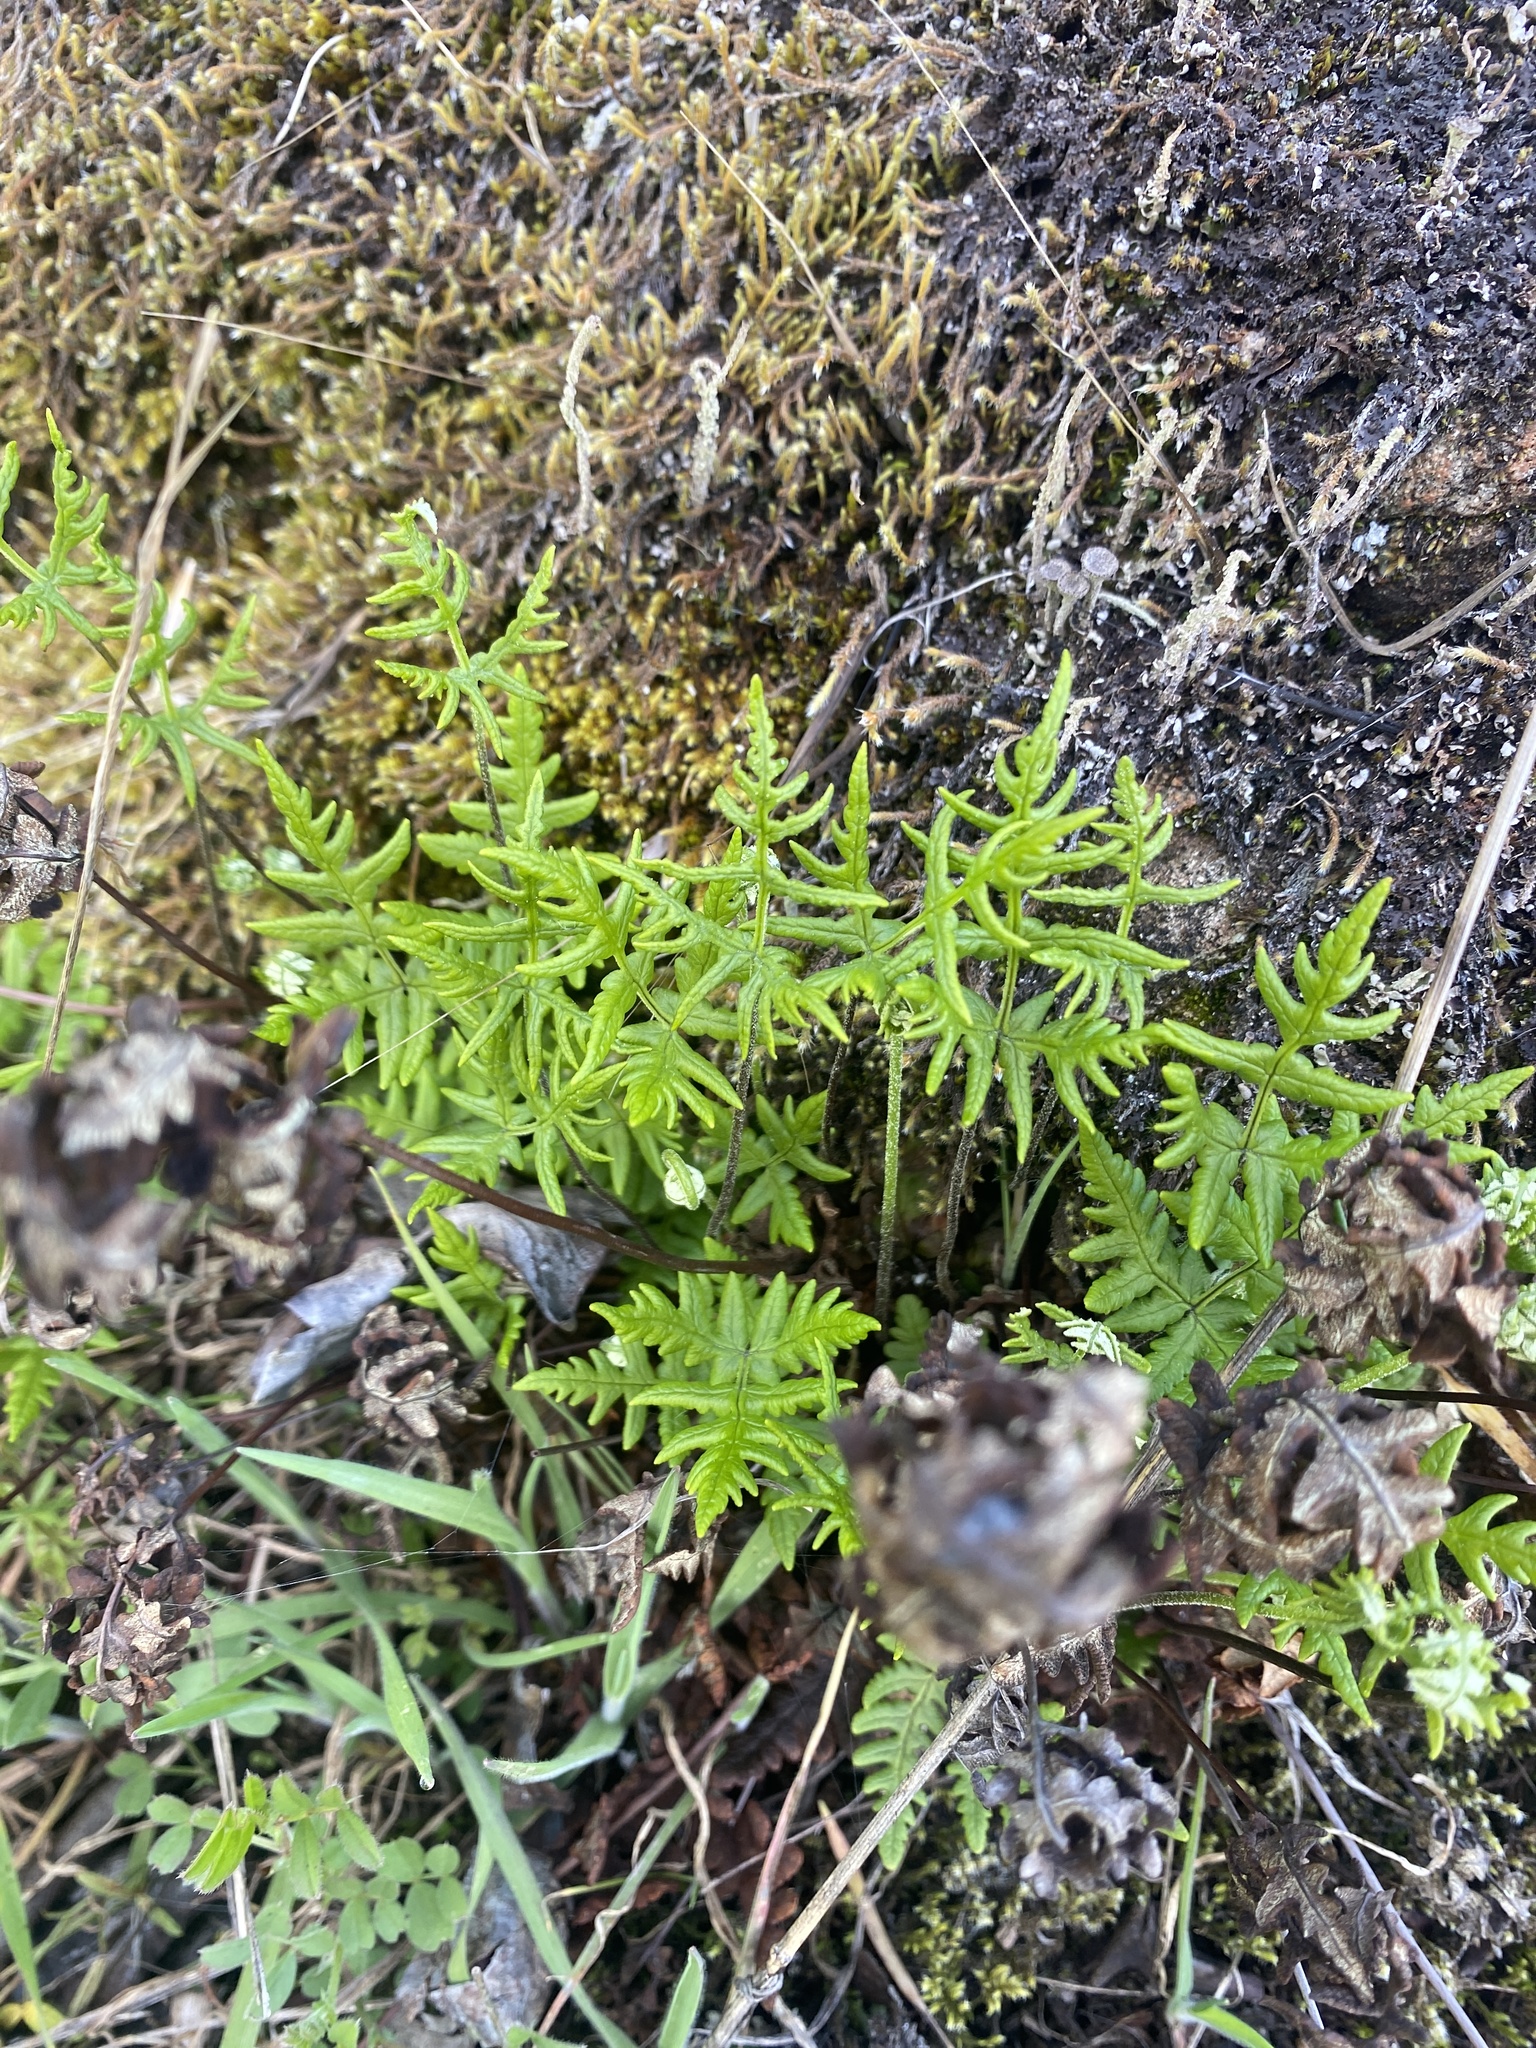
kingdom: Plantae
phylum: Tracheophyta
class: Polypodiopsida
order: Polypodiales
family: Pteridaceae
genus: Pentagramma
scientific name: Pentagramma triangularis
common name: Gold fern
